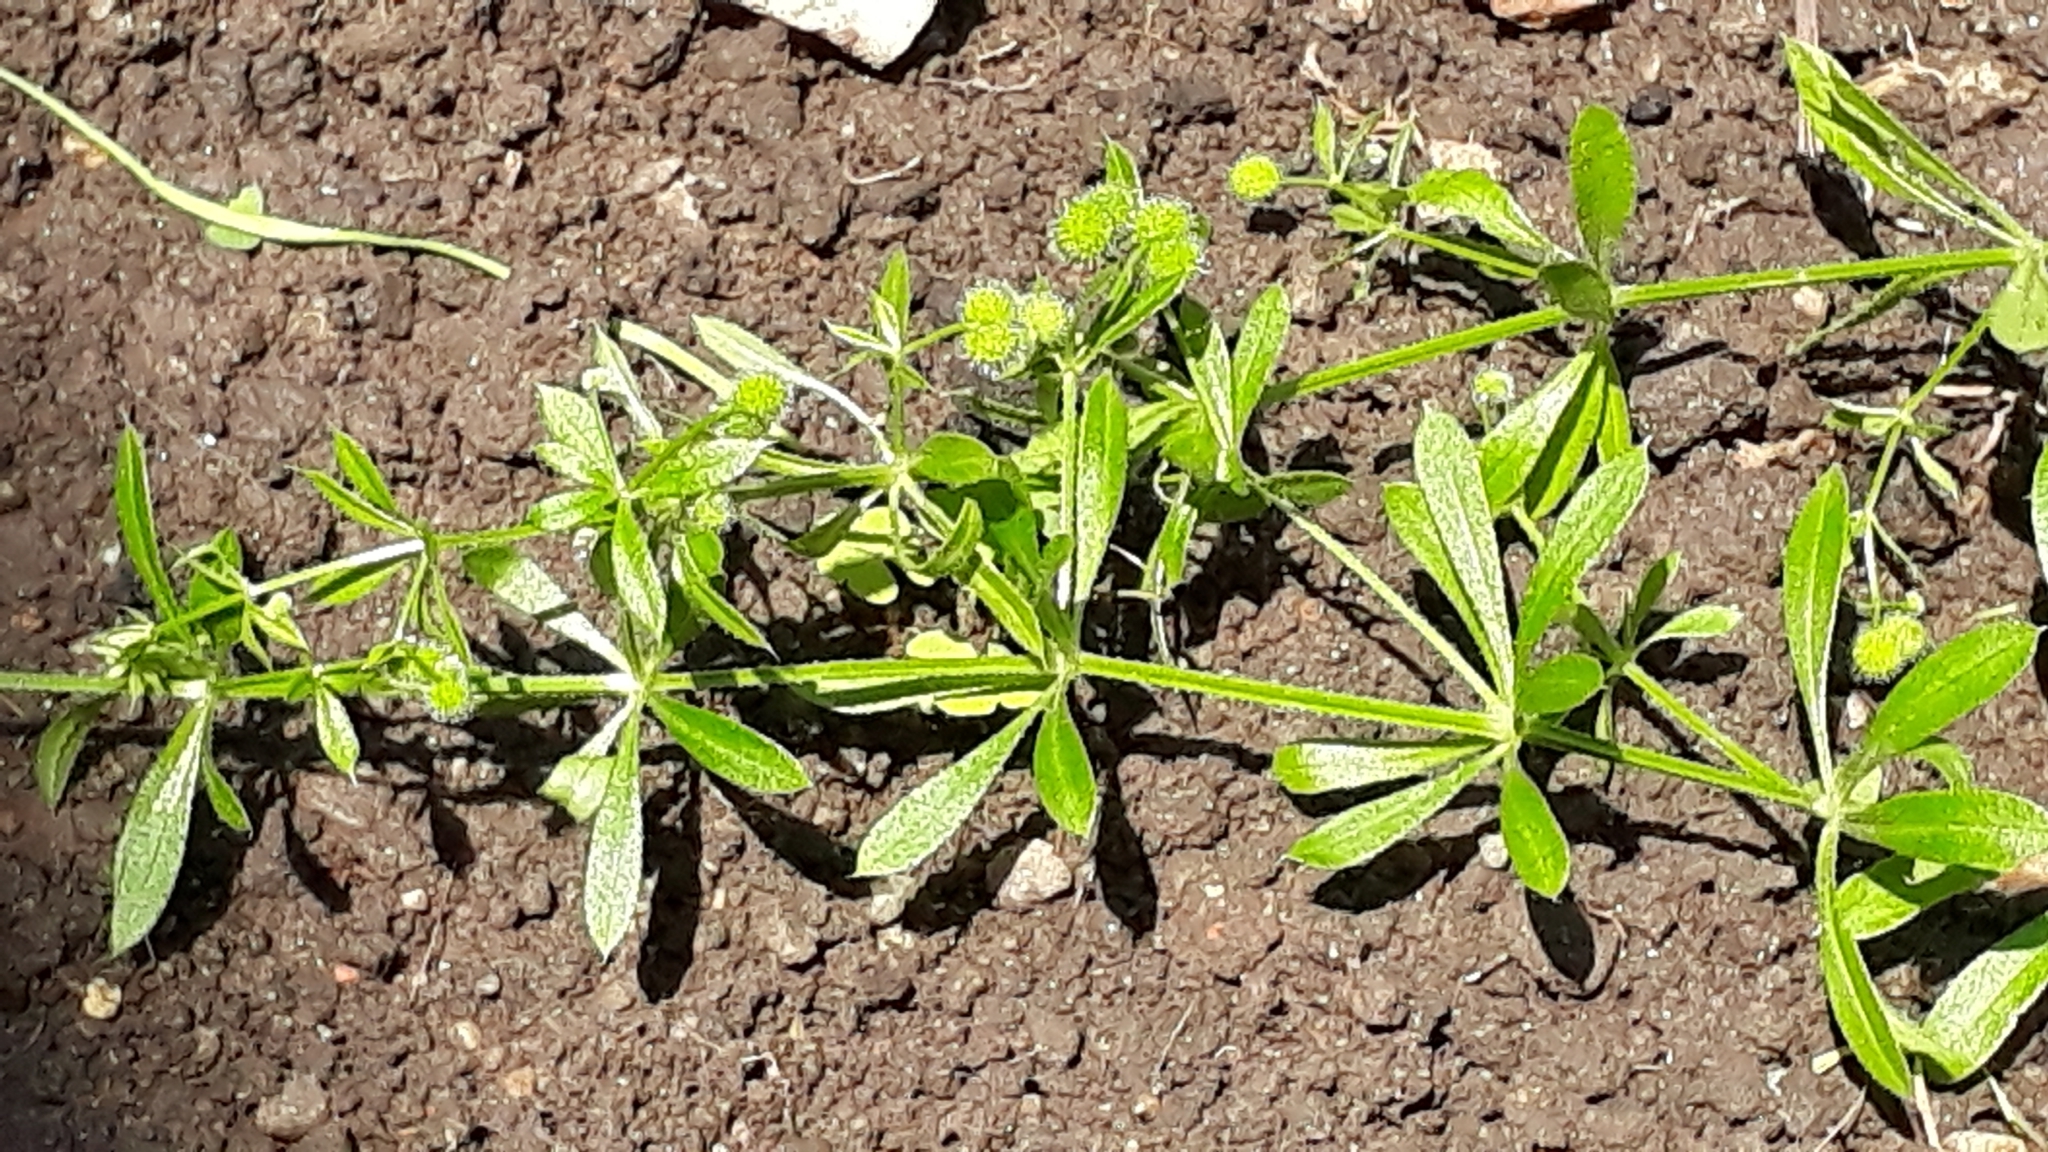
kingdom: Plantae
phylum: Tracheophyta
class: Magnoliopsida
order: Gentianales
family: Rubiaceae
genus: Galium
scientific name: Galium aparine
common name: Cleavers
